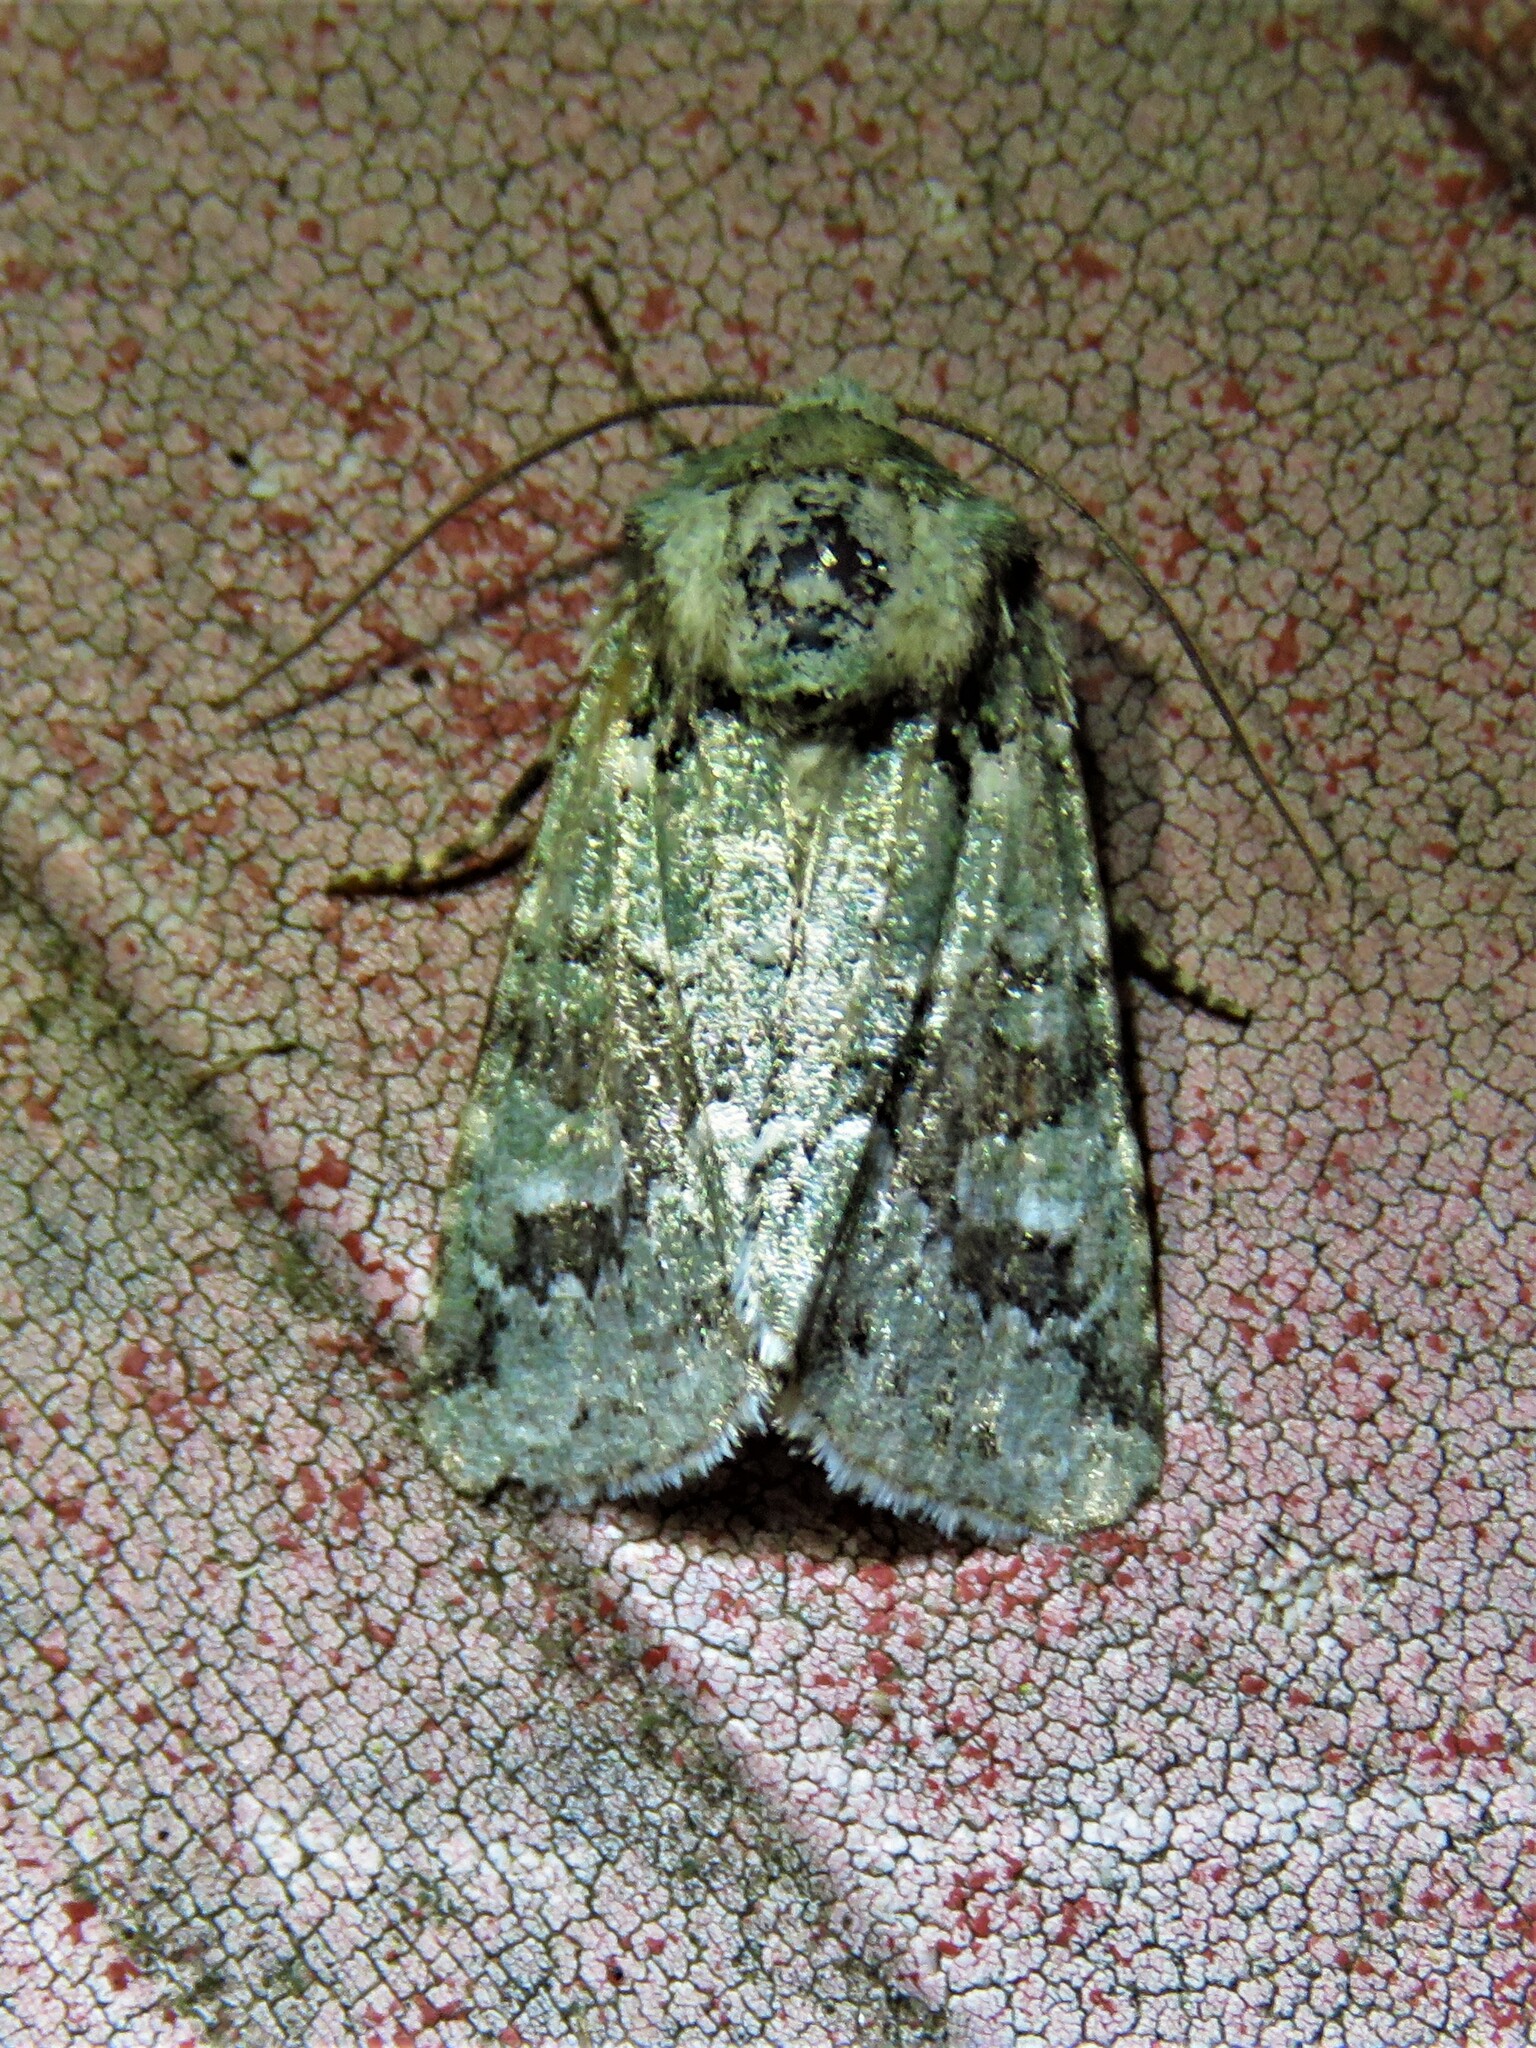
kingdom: Animalia
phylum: Arthropoda
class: Insecta
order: Lepidoptera
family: Noctuidae
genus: Lacinipolia
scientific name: Lacinipolia laudabilis
